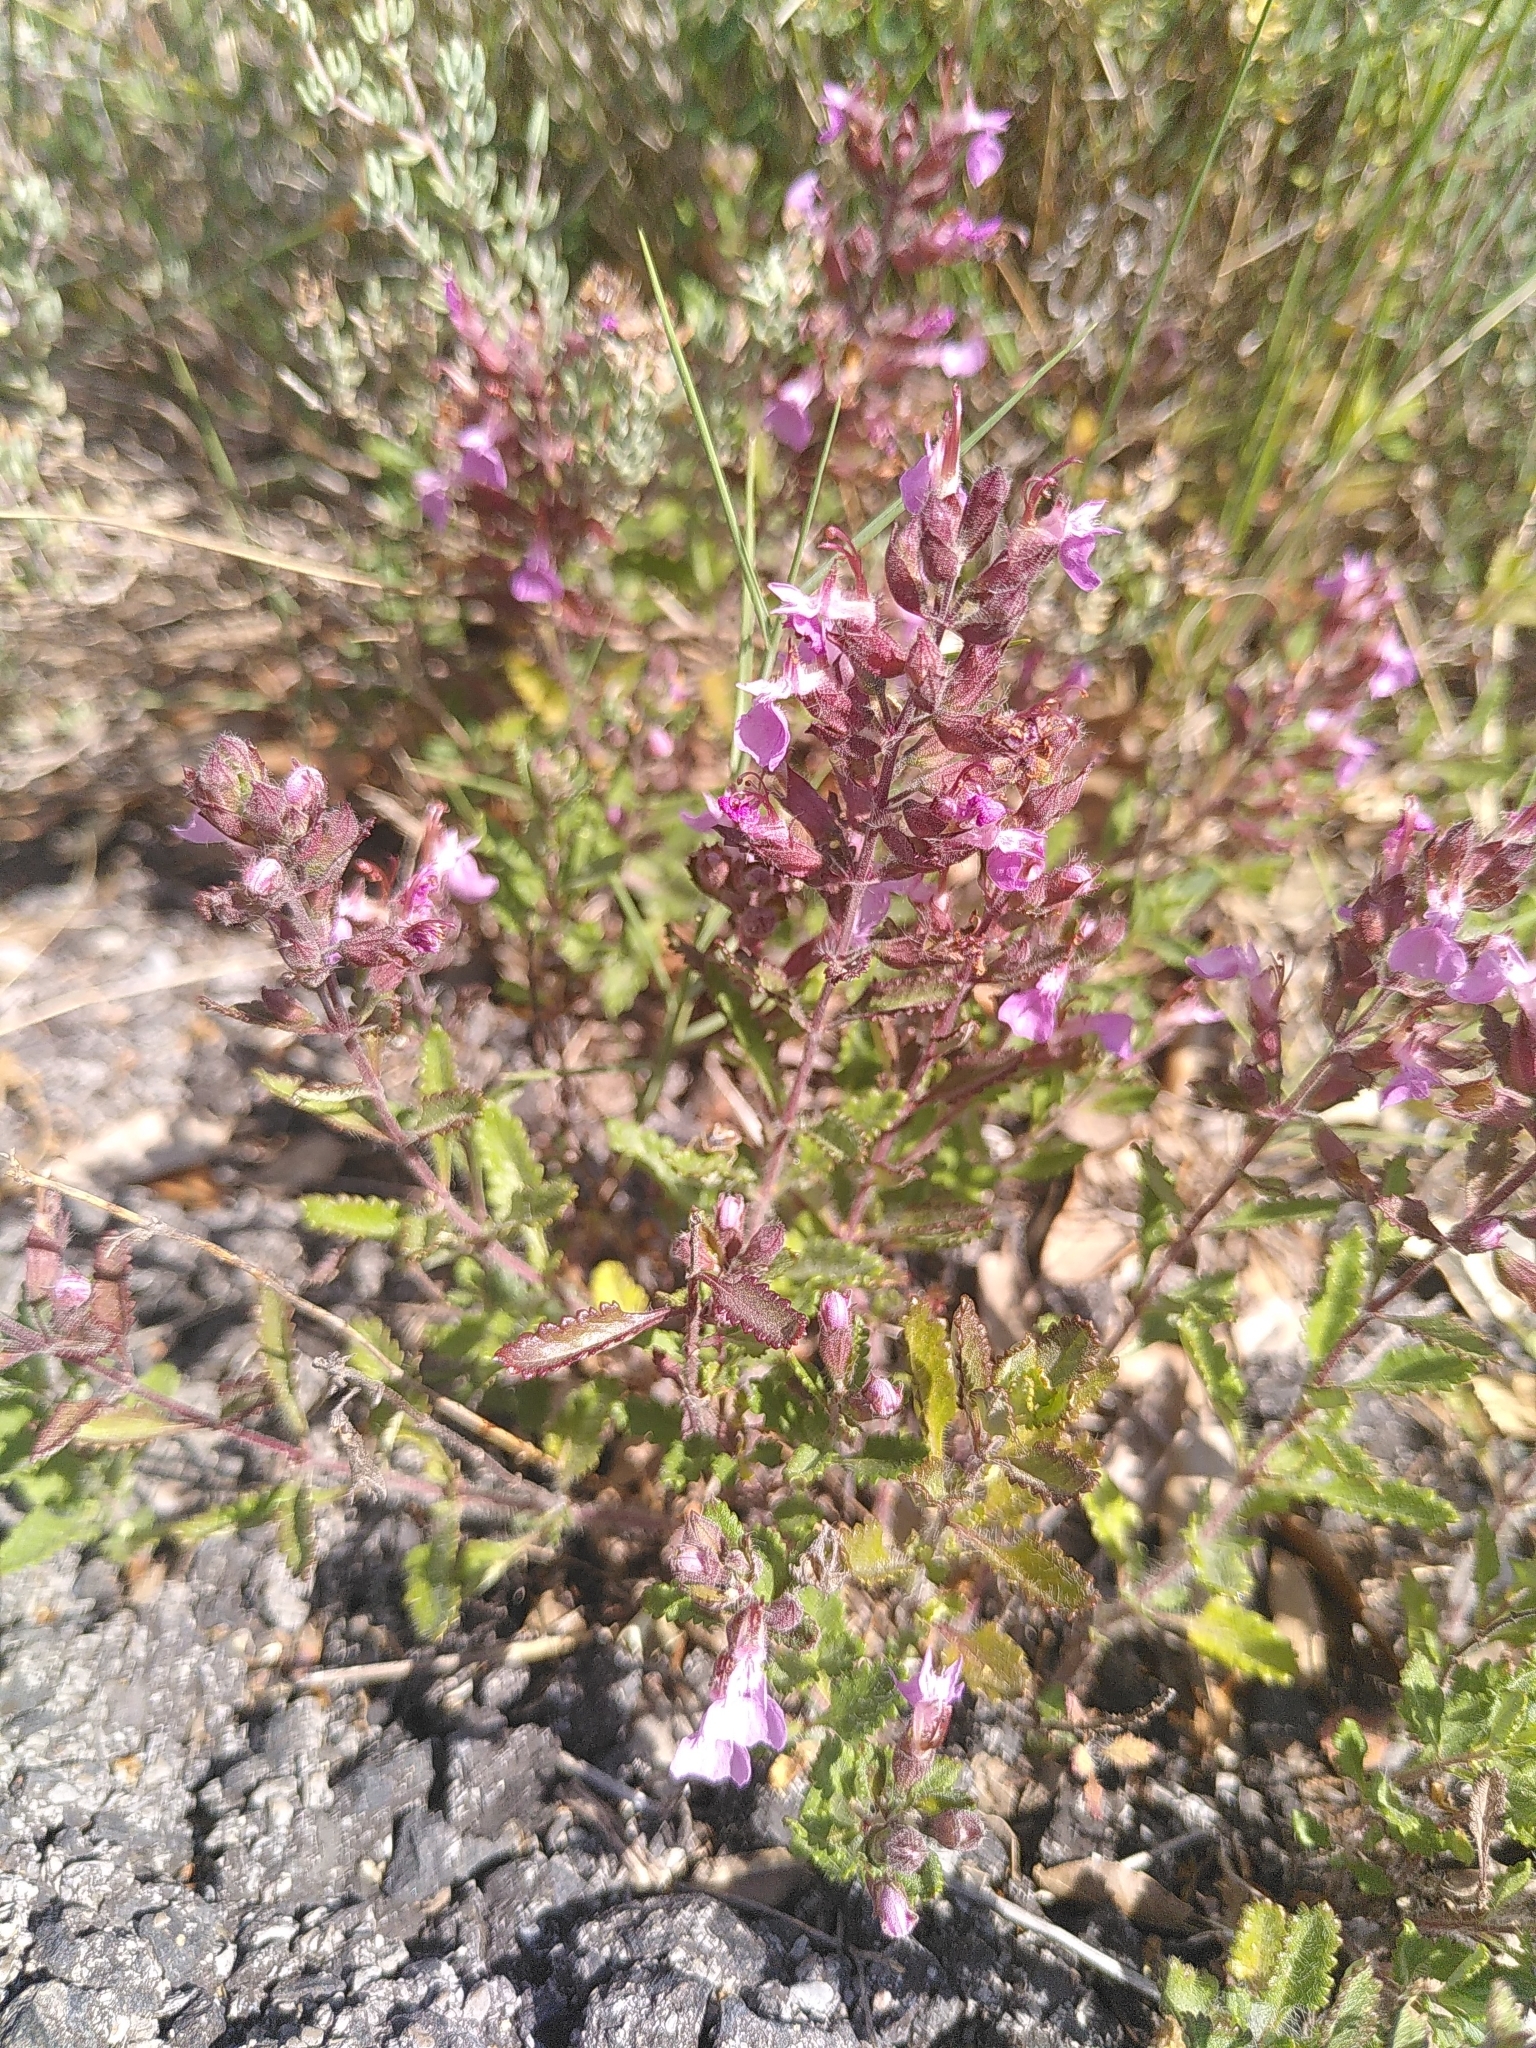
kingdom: Plantae
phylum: Tracheophyta
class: Magnoliopsida
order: Lamiales
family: Lamiaceae
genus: Teucrium
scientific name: Teucrium chamaedrys
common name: Wall germander
